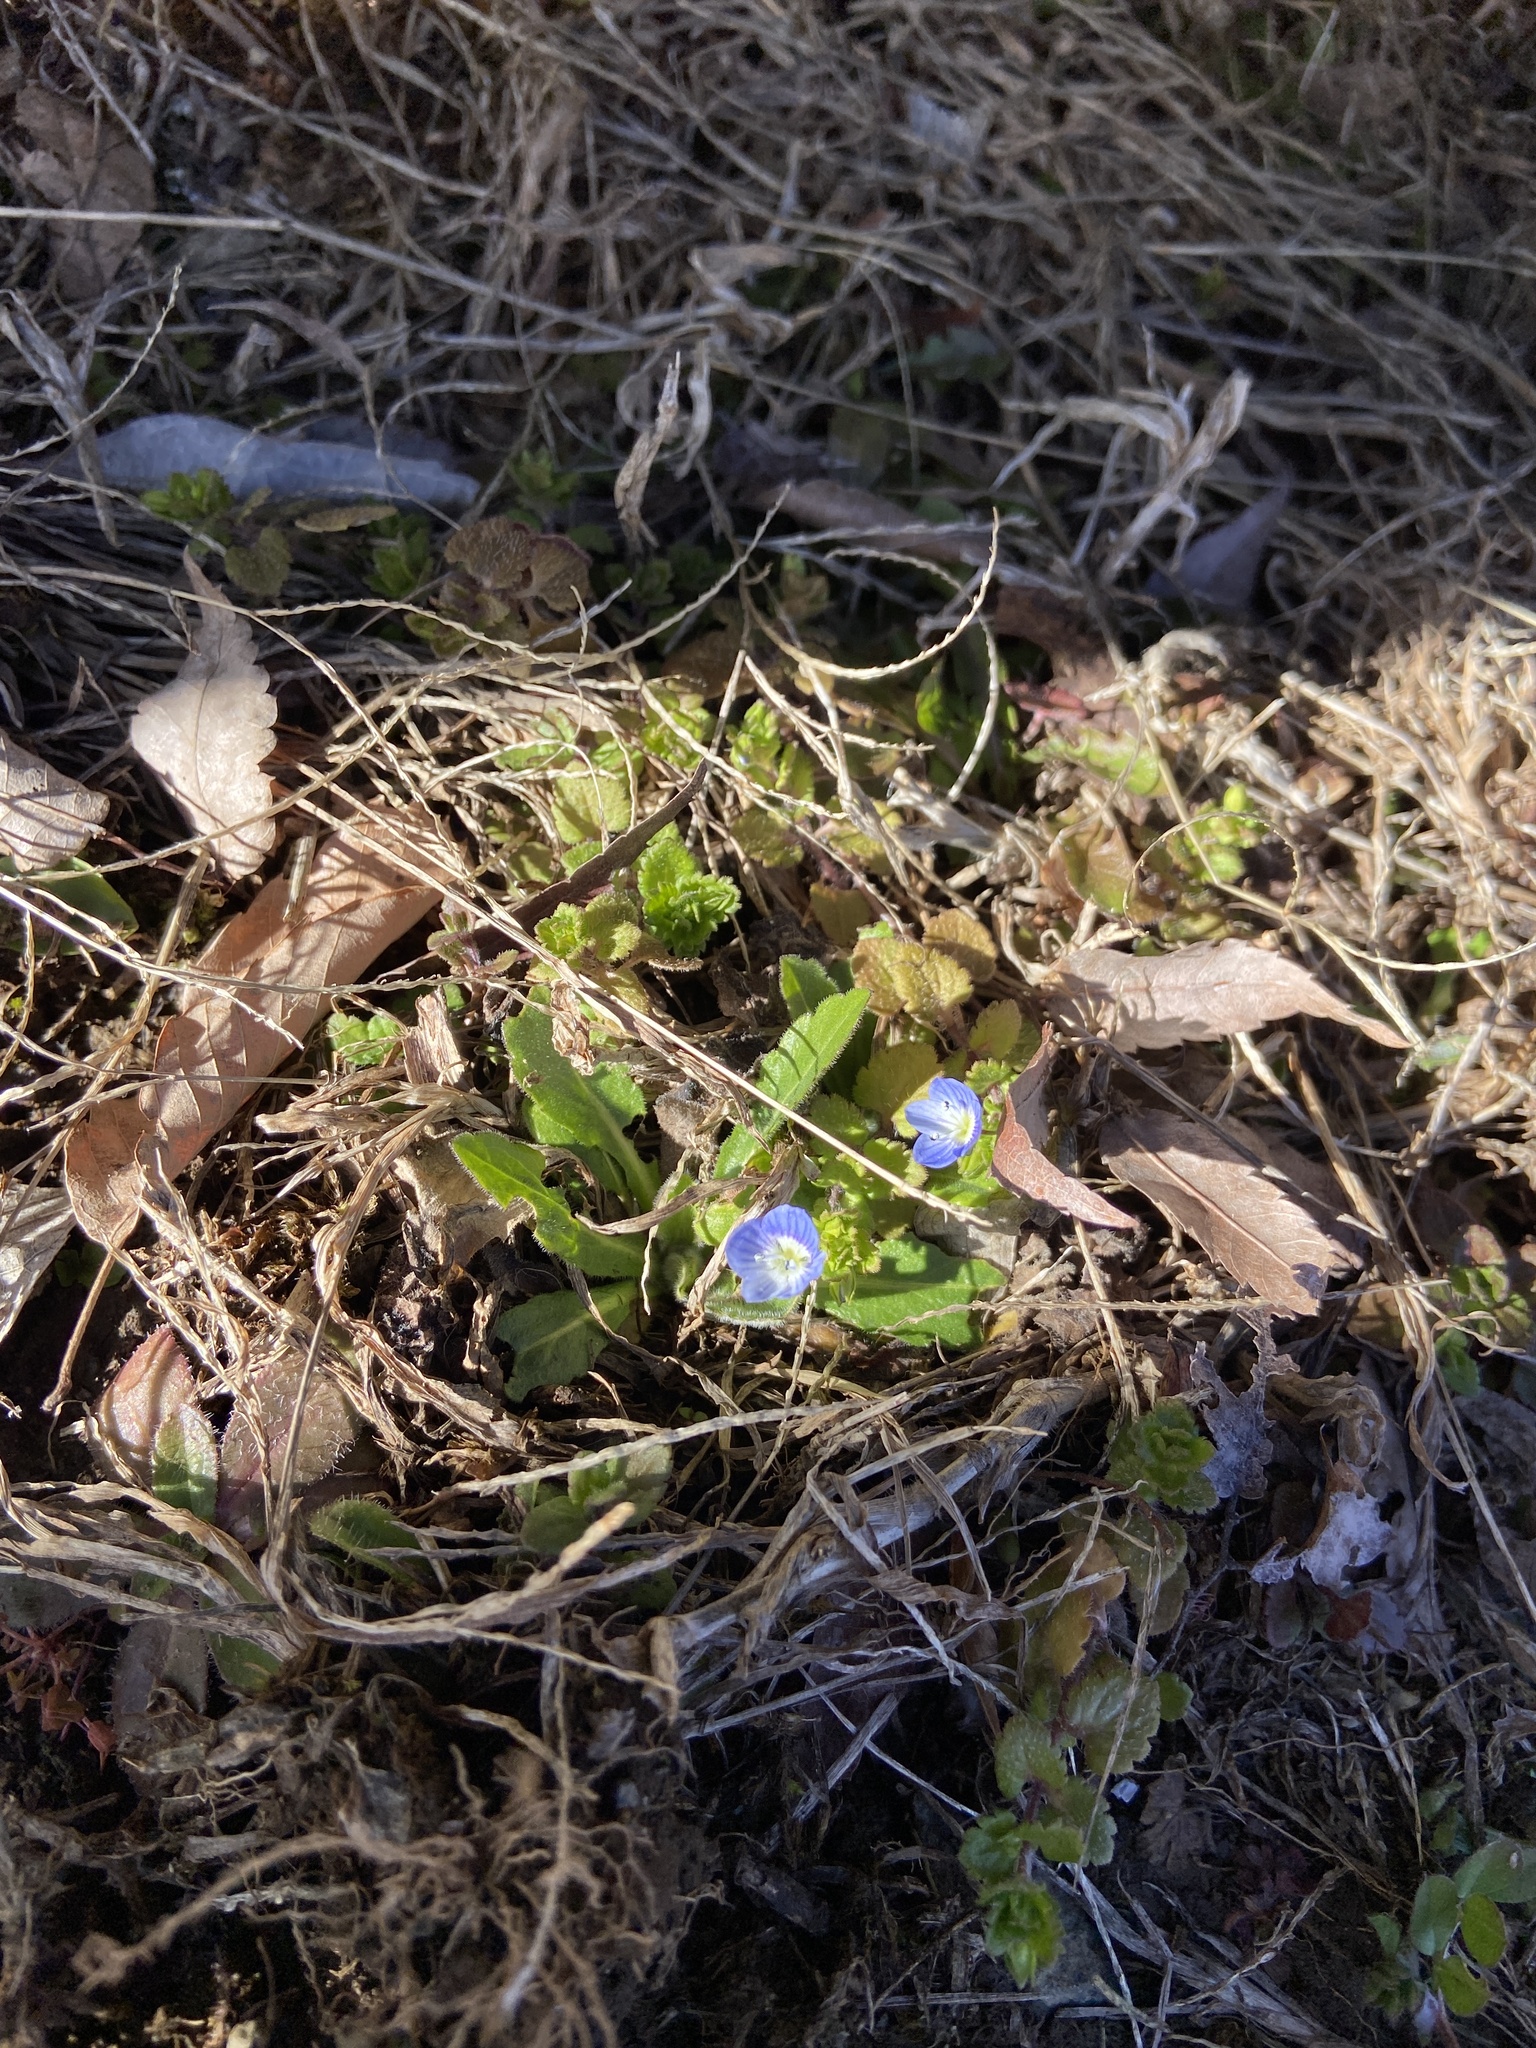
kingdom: Plantae
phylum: Tracheophyta
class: Magnoliopsida
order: Lamiales
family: Plantaginaceae
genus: Veronica
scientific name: Veronica persica
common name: Common field-speedwell
